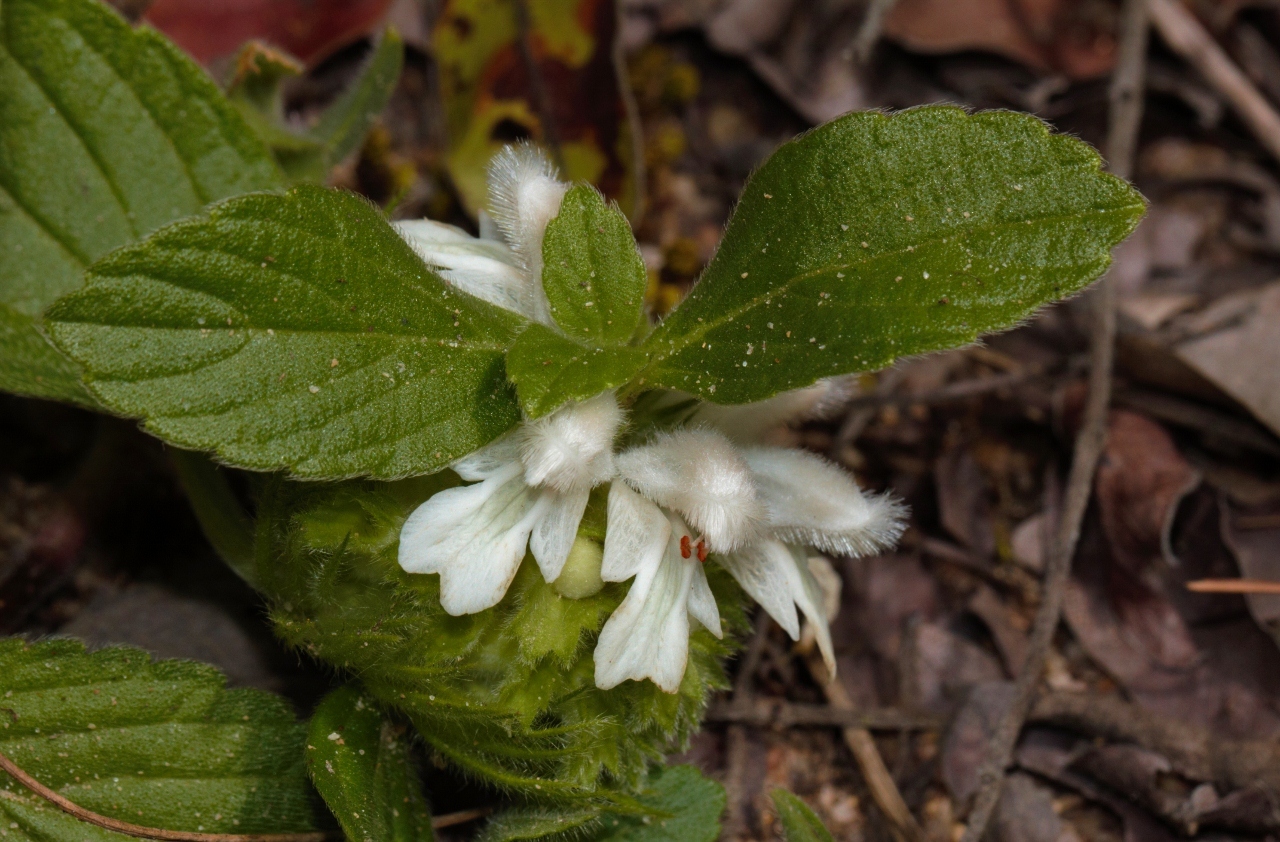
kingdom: Plantae
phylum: Tracheophyta
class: Magnoliopsida
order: Lamiales
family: Lamiaceae
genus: Leucas
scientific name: Leucas nyassae
